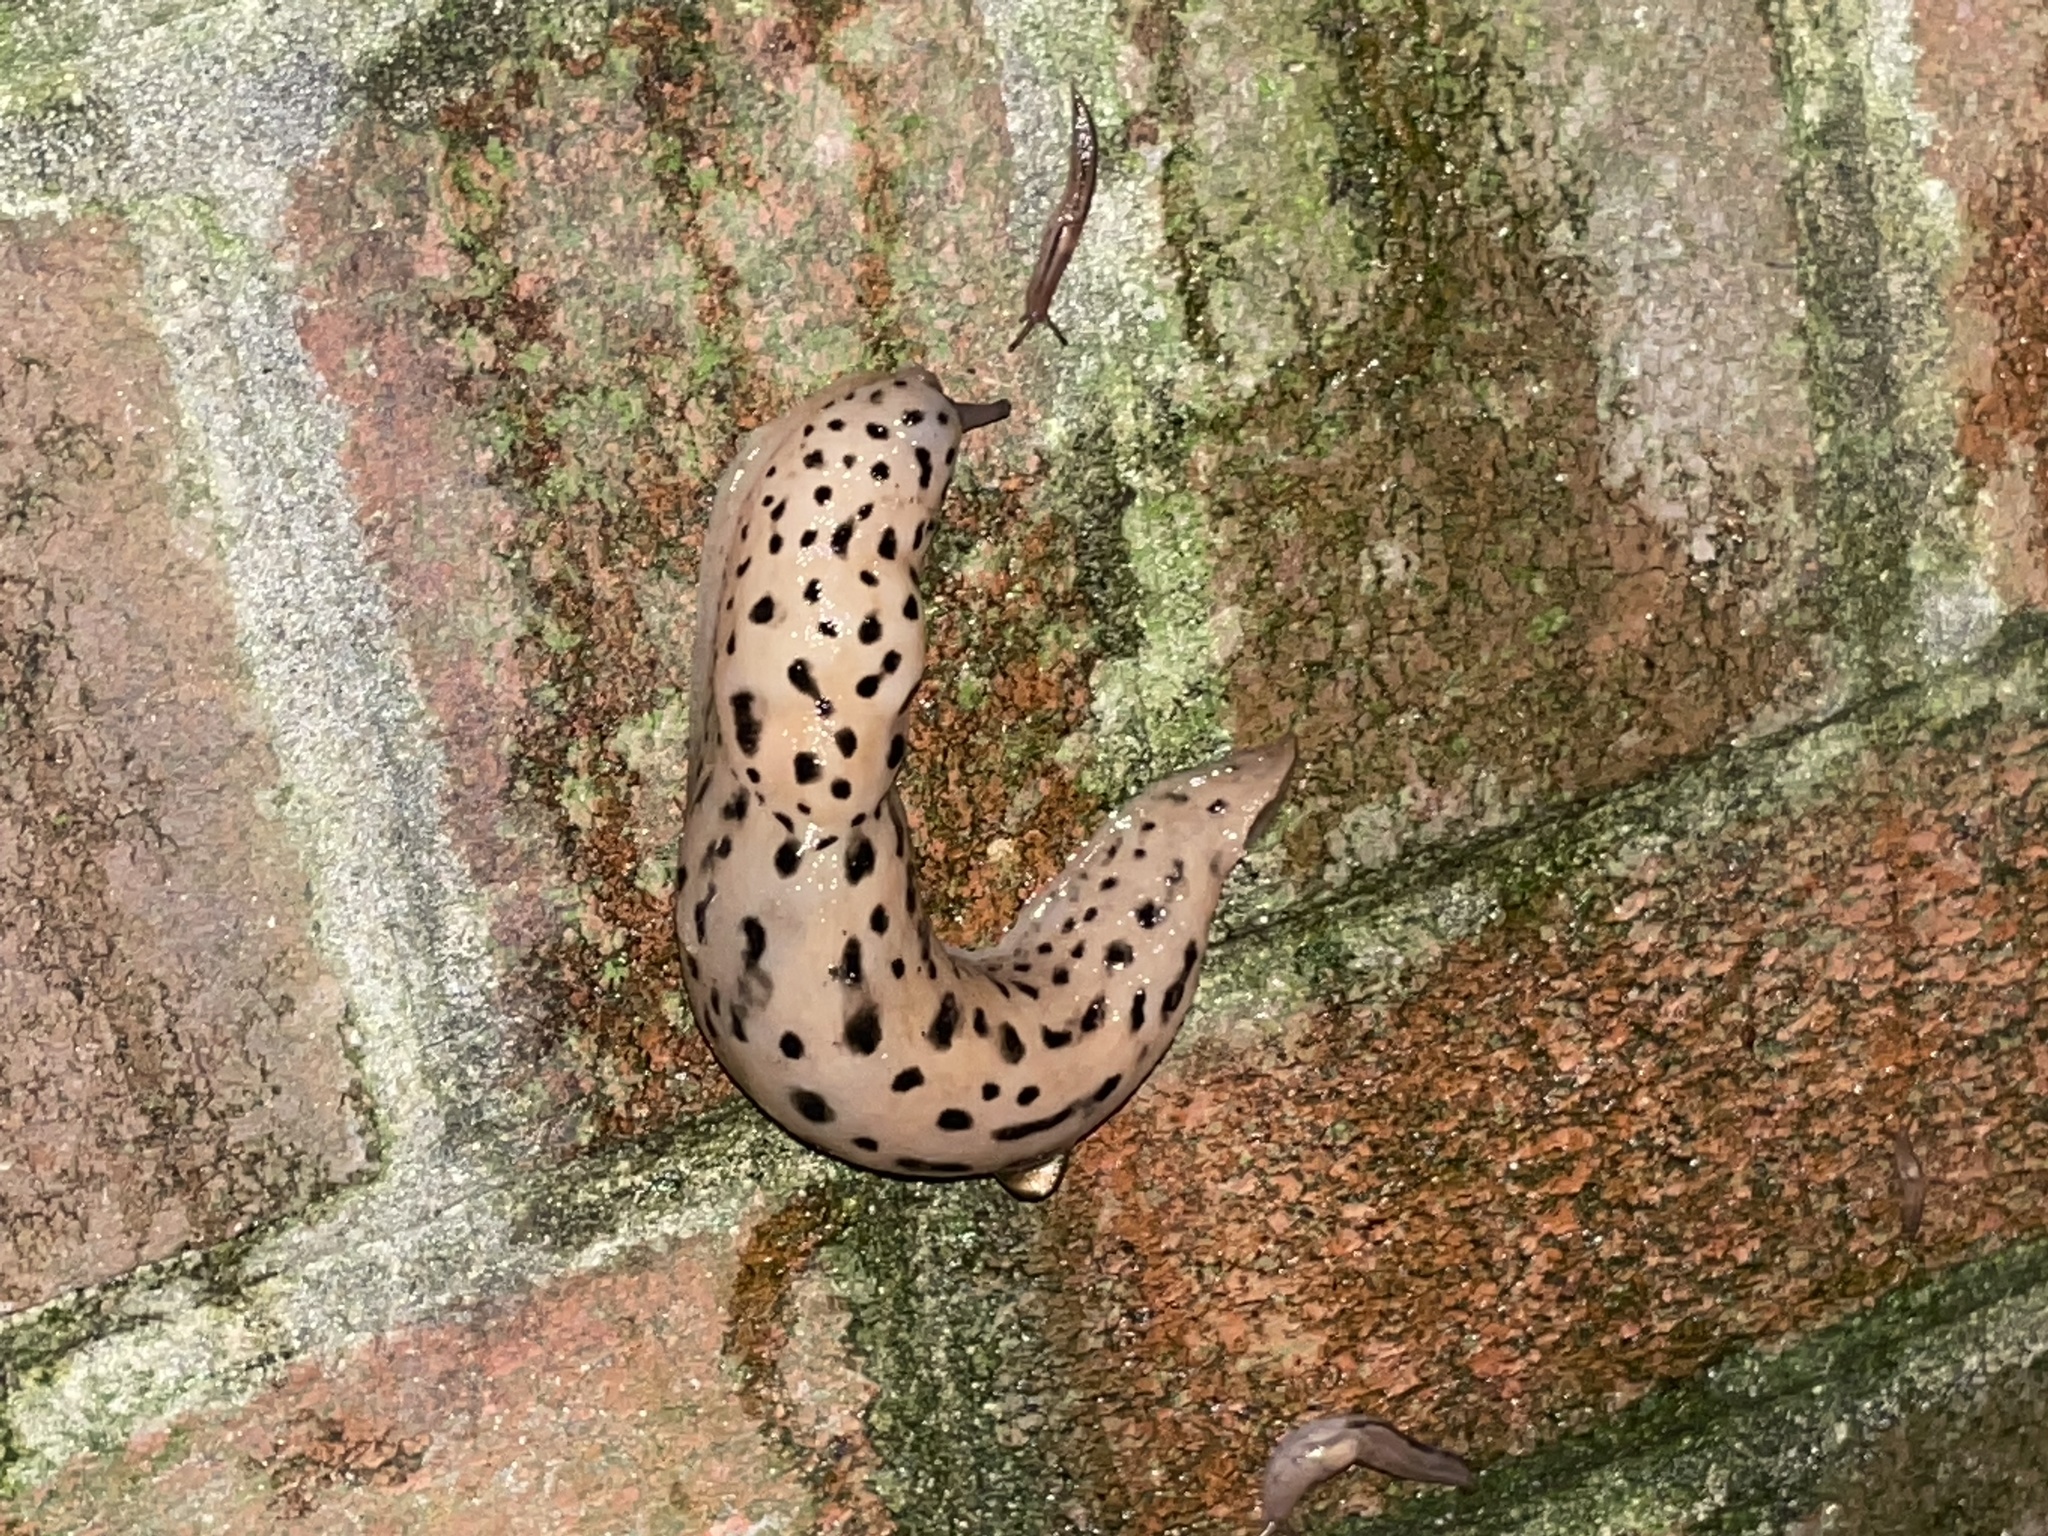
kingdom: Animalia
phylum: Mollusca
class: Gastropoda
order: Stylommatophora
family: Limacidae
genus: Limax
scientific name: Limax maximus
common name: Great grey slug
